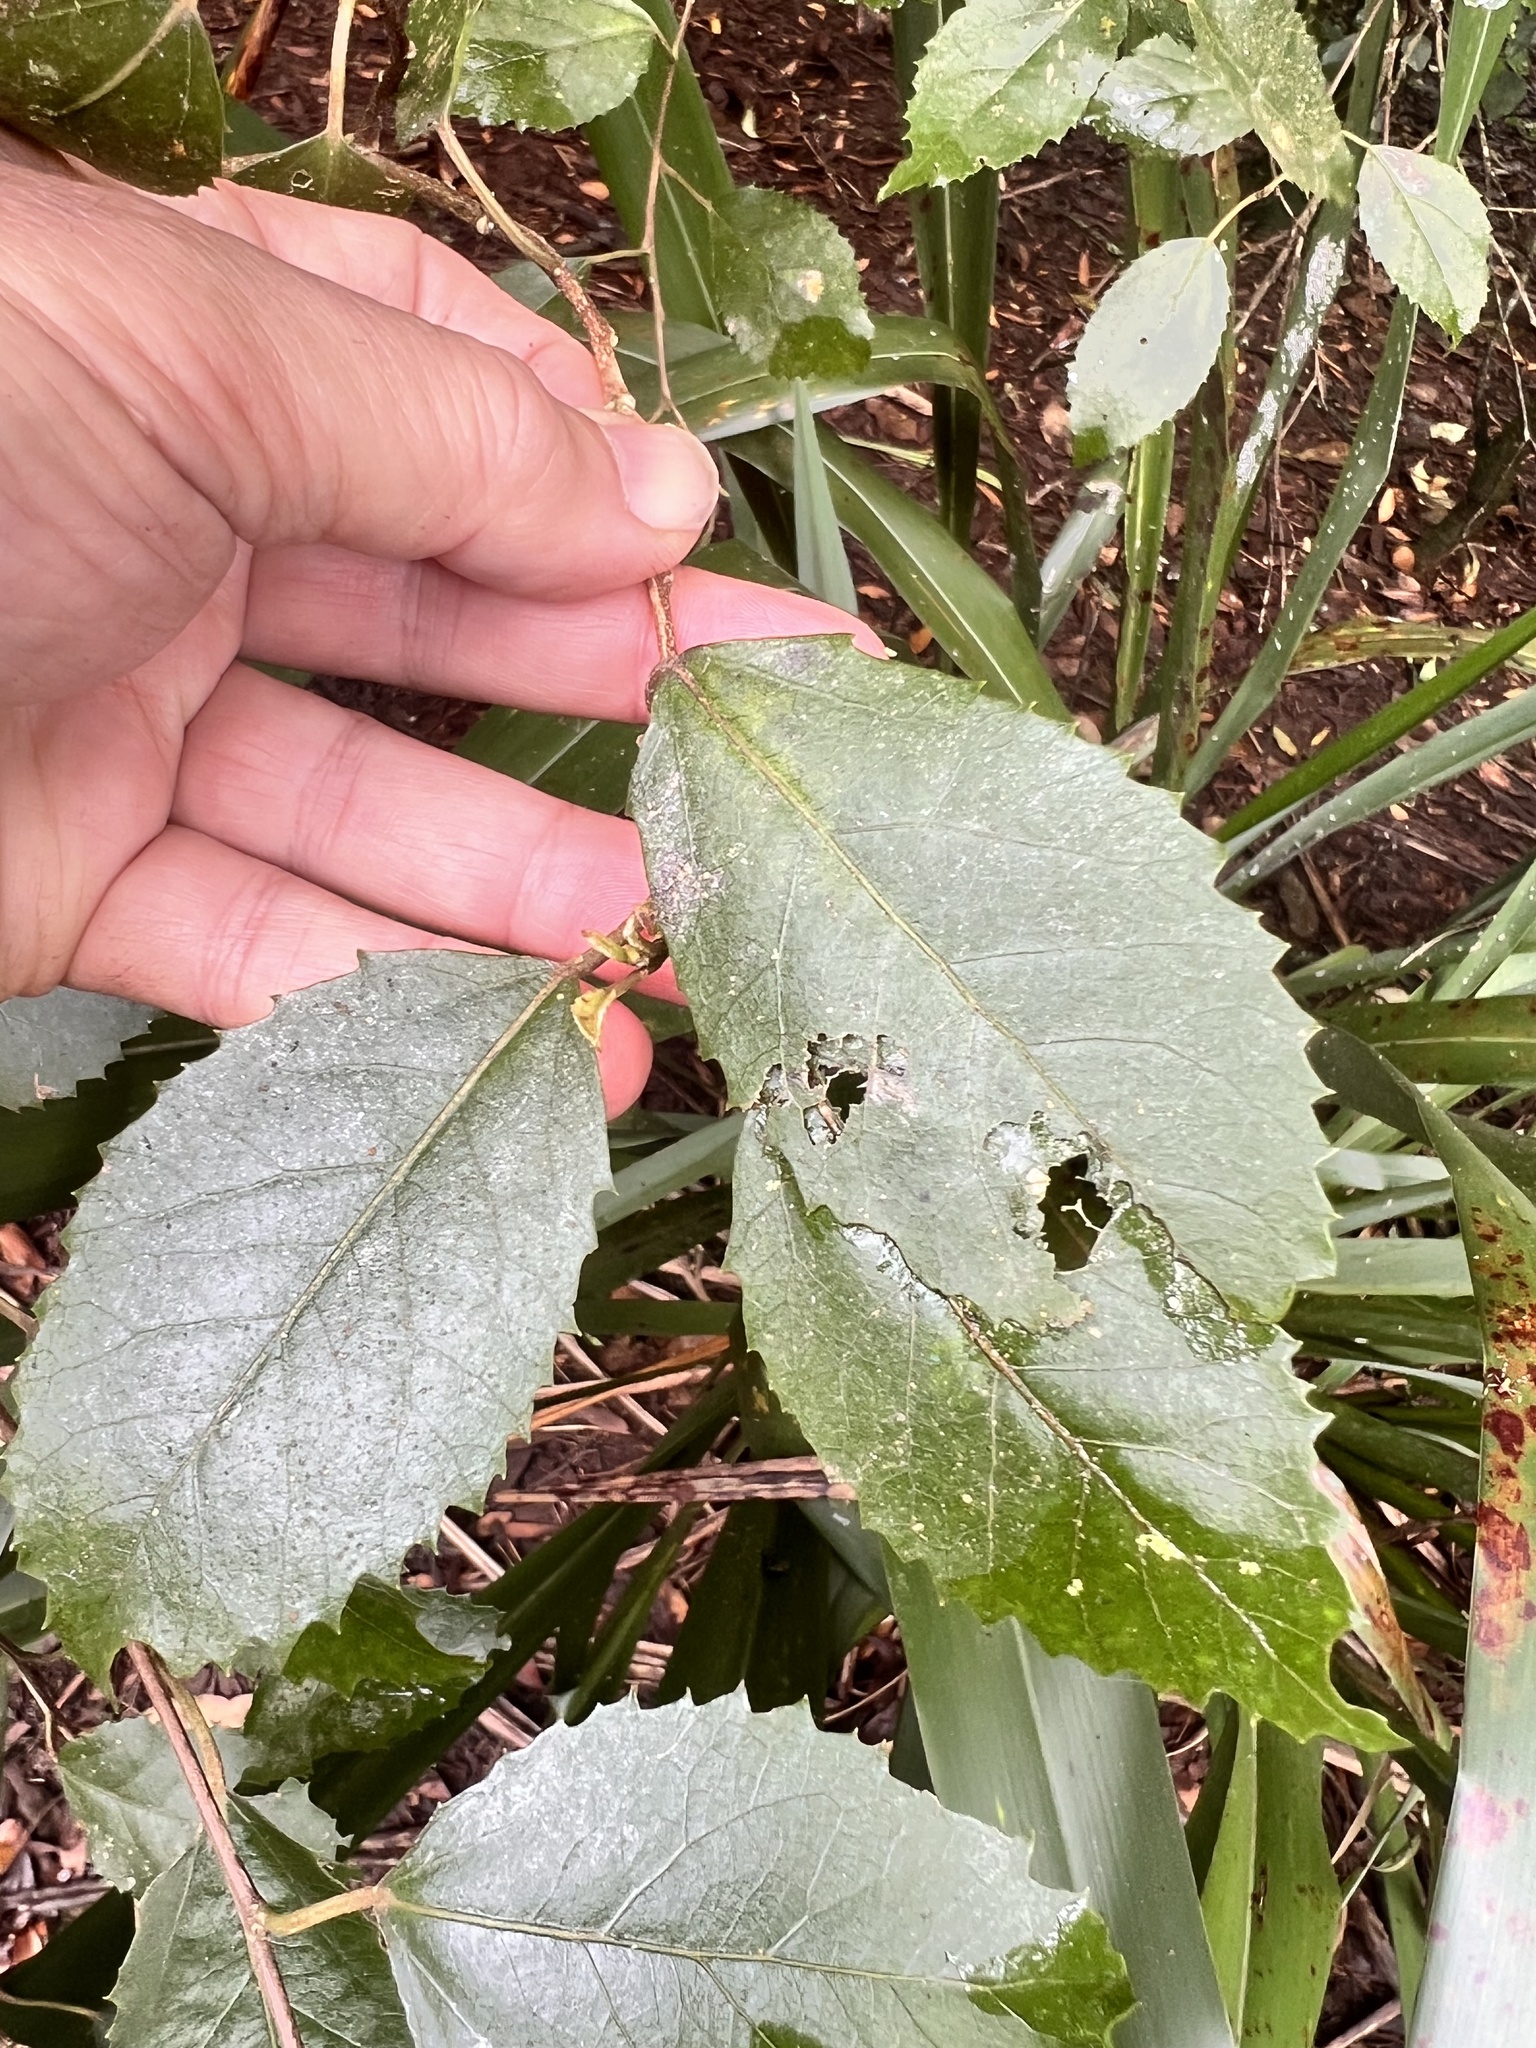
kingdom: Plantae
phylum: Tracheophyta
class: Magnoliopsida
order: Malvales
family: Malvaceae
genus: Hoheria
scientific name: Hoheria sexstylosa
